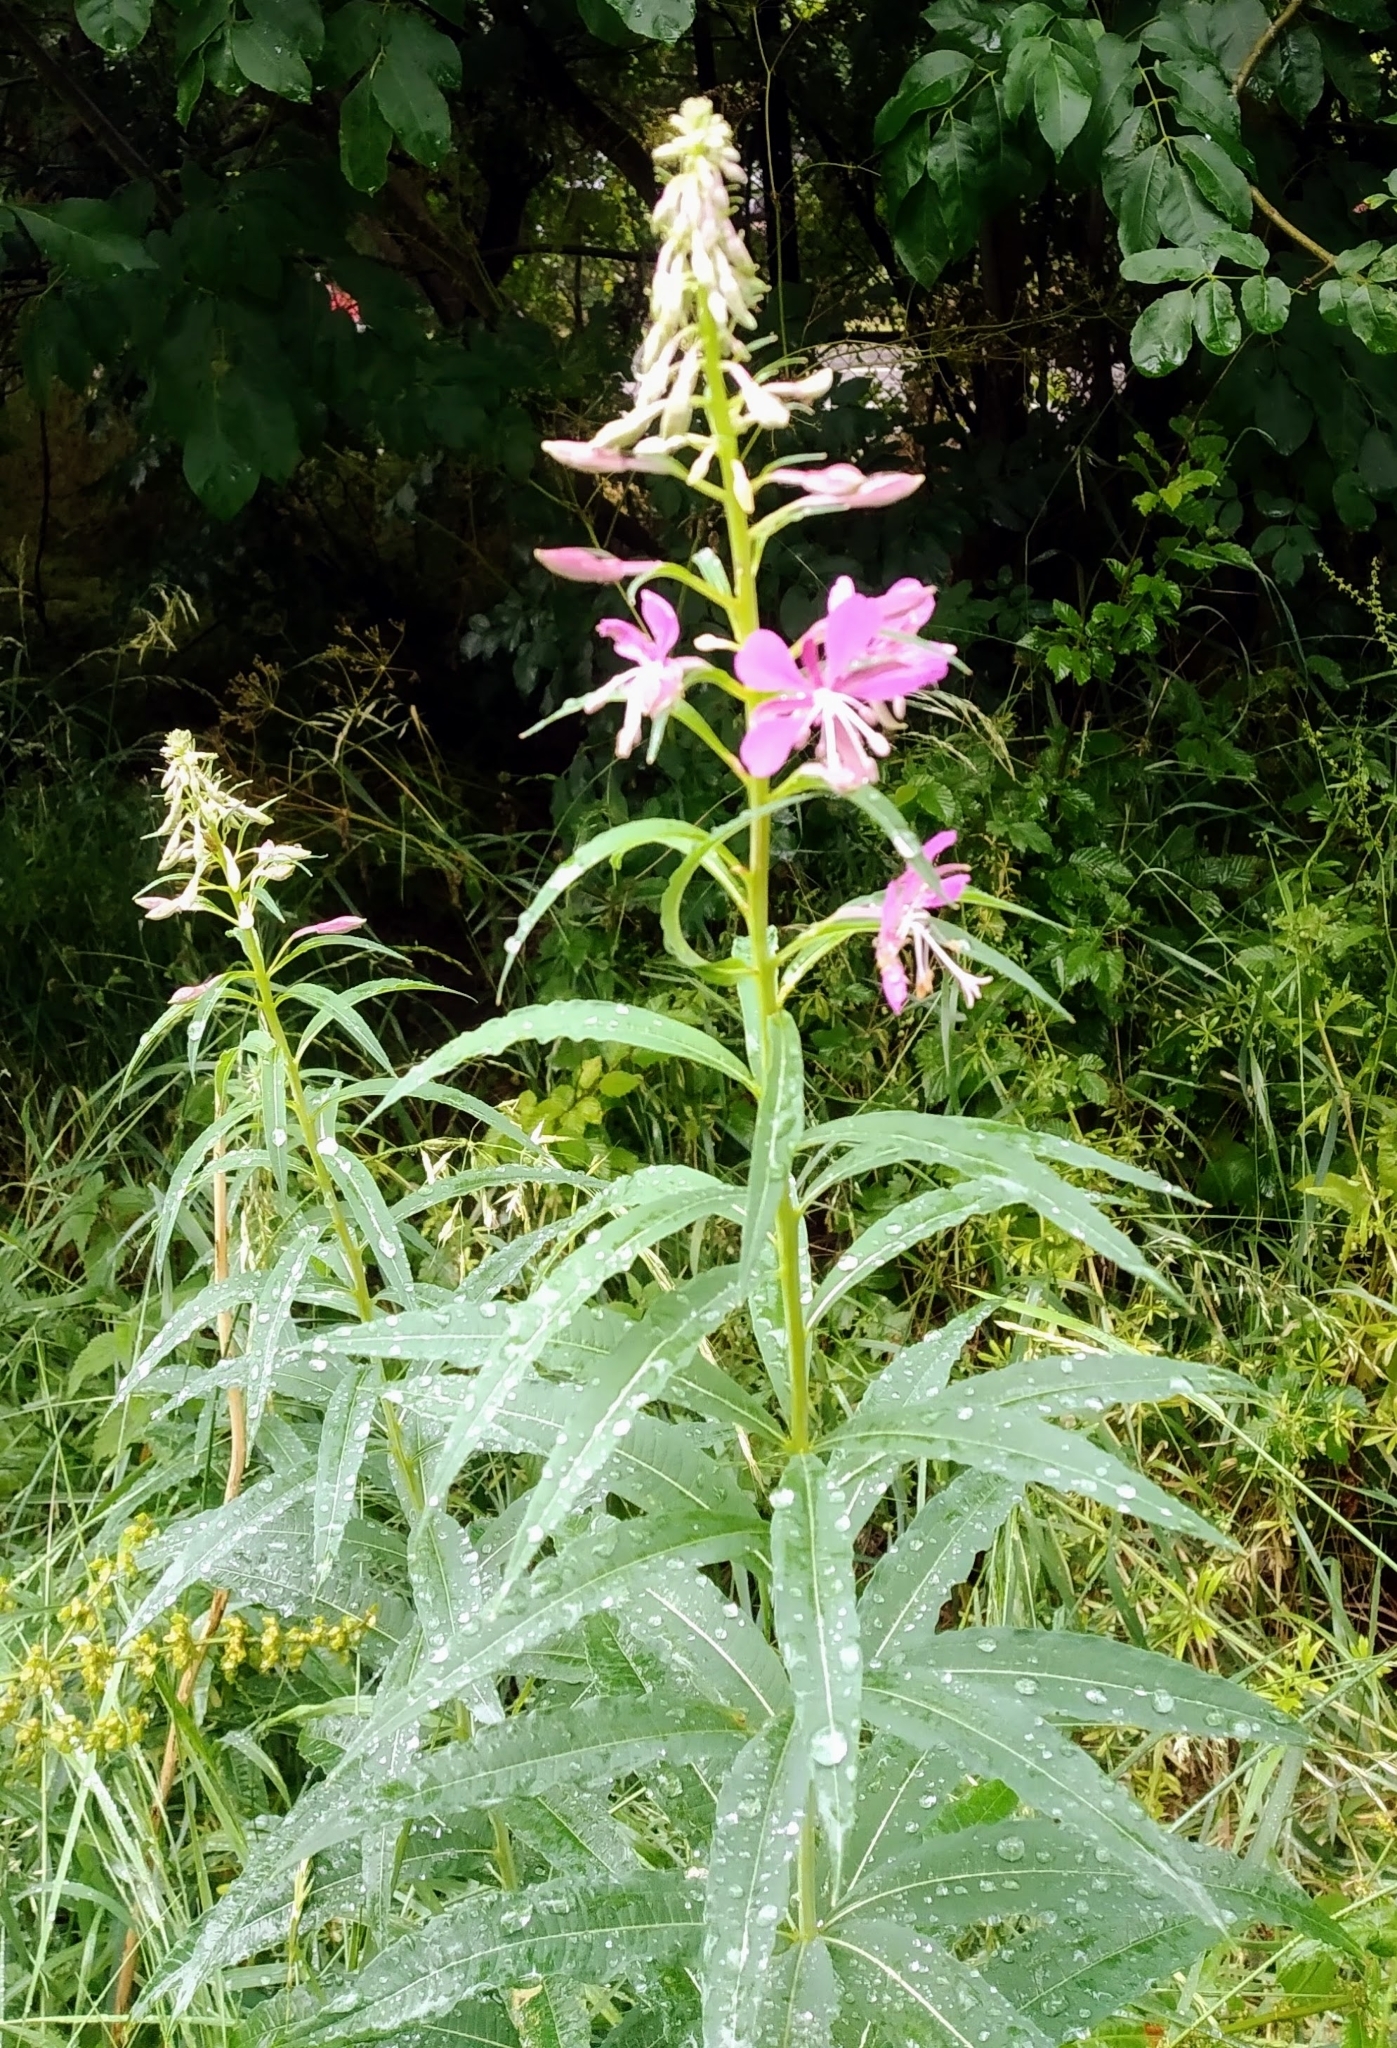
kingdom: Plantae
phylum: Tracheophyta
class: Magnoliopsida
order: Myrtales
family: Onagraceae
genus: Chamaenerion
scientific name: Chamaenerion angustifolium
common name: Fireweed
